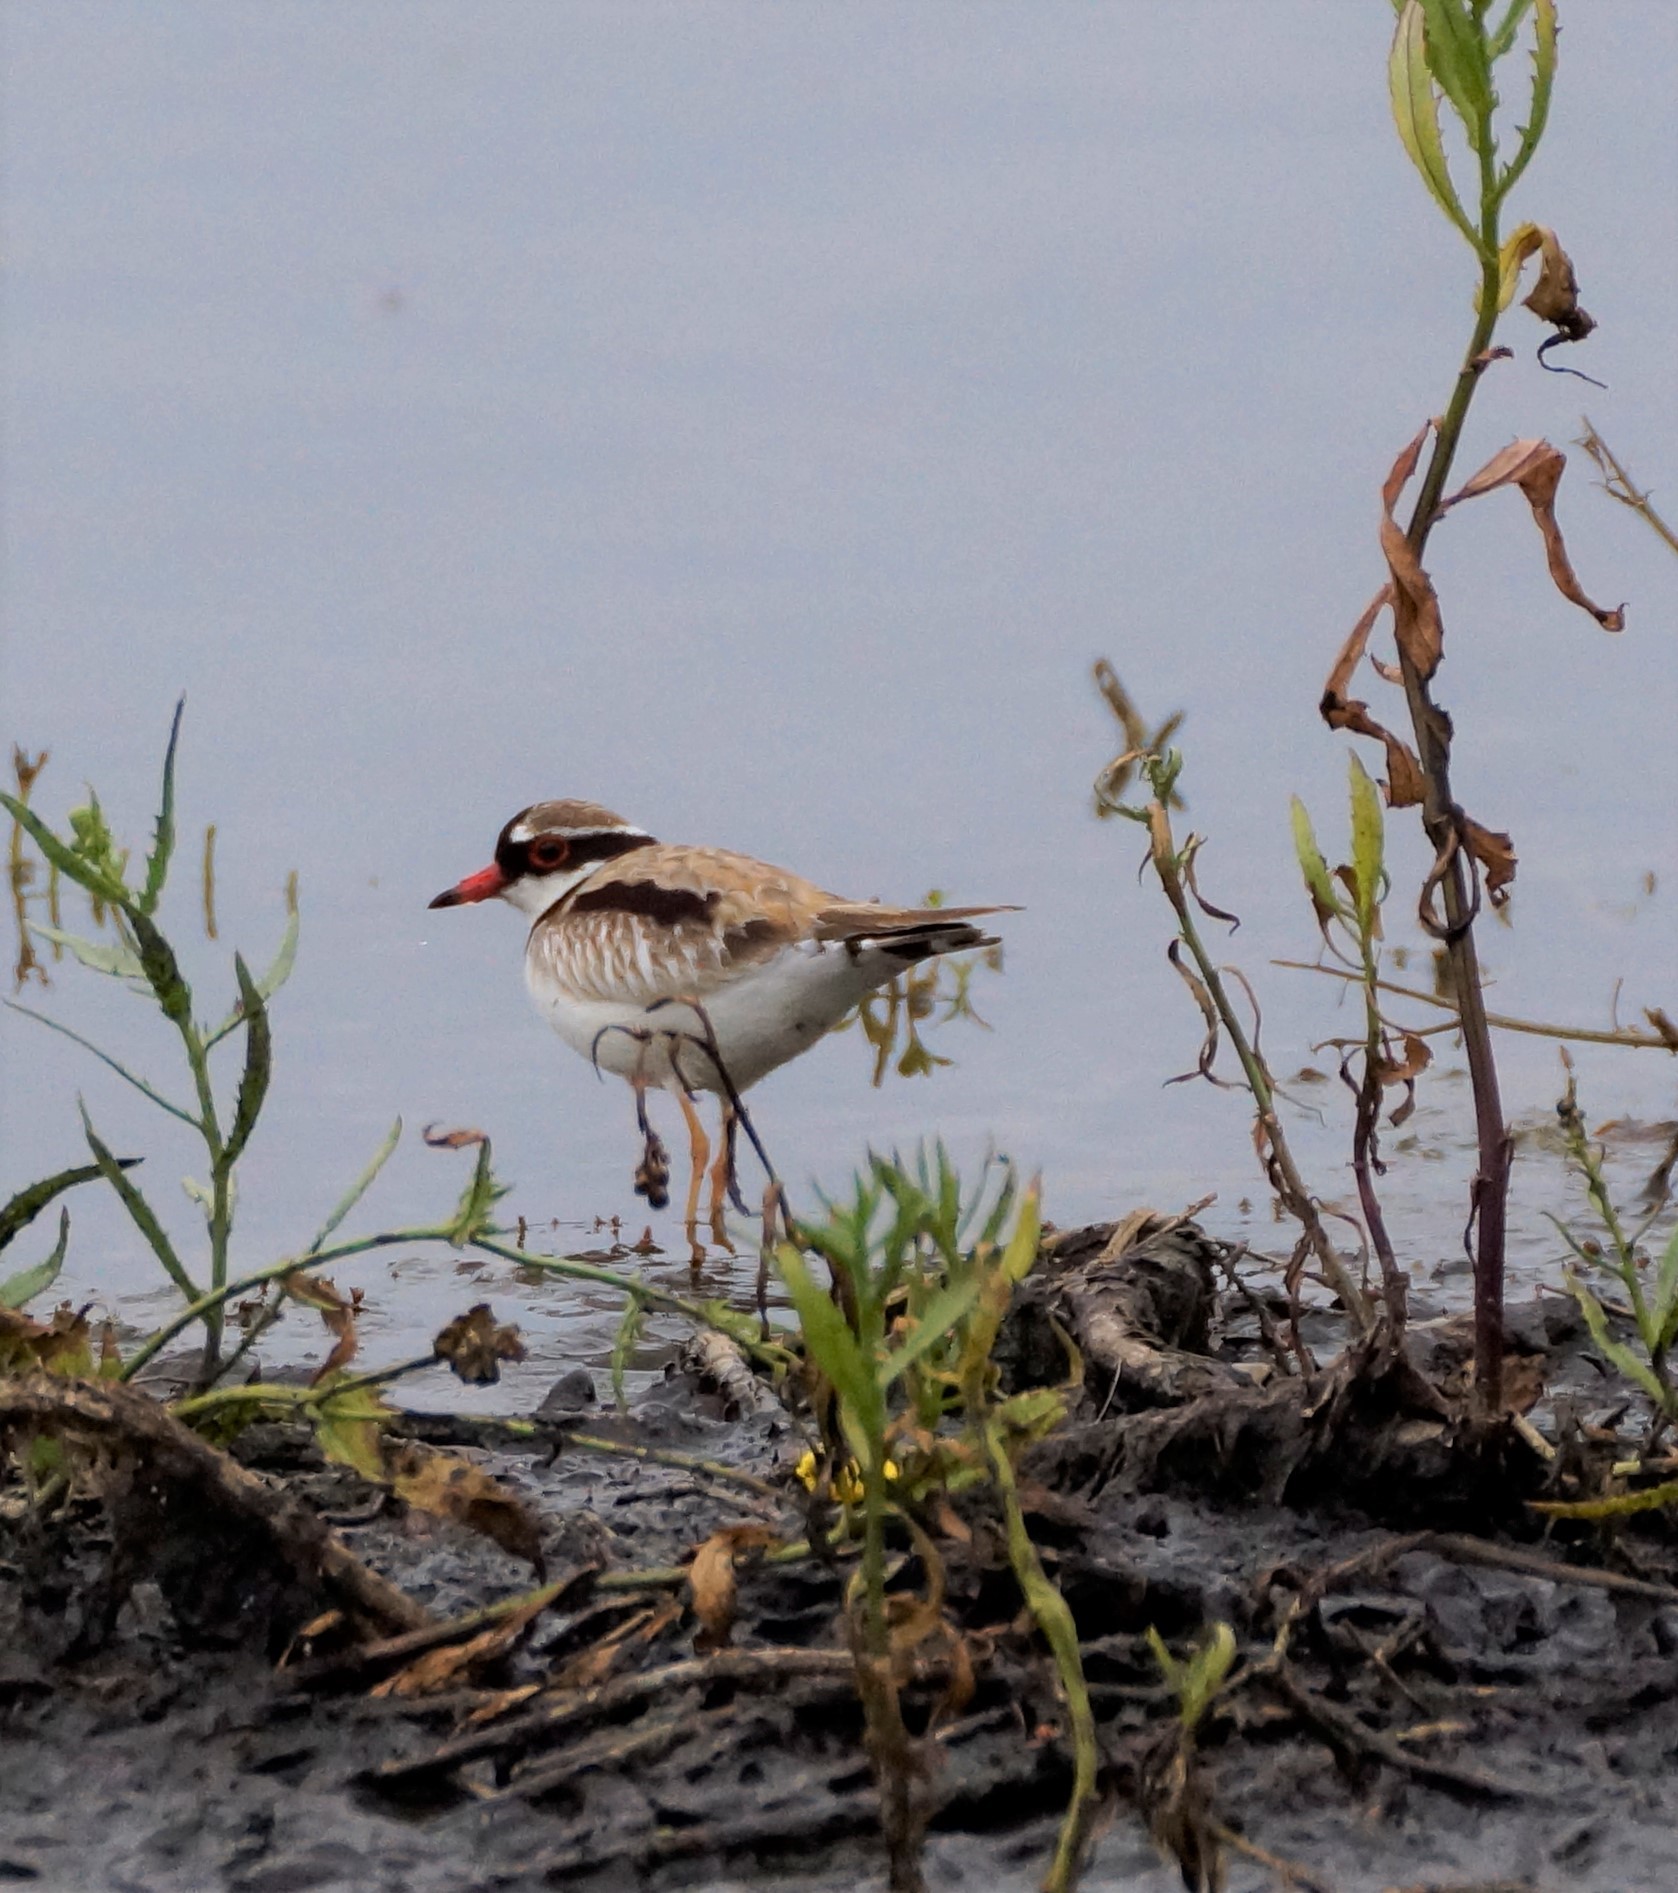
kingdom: Animalia
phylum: Chordata
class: Aves
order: Charadriiformes
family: Charadriidae
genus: Elseyornis
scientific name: Elseyornis melanops
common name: Black-fronted dotterel
